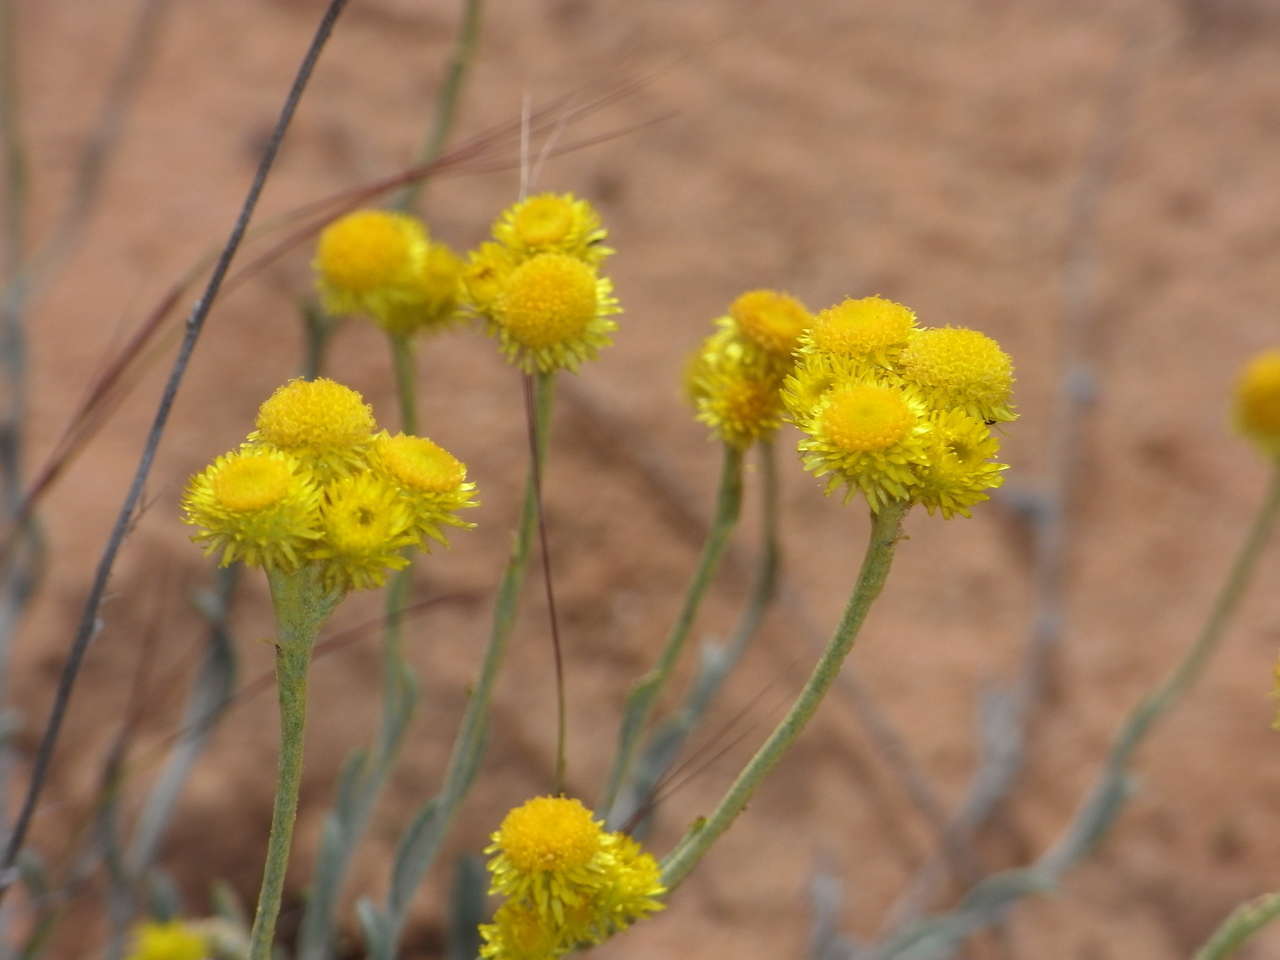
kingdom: Plantae
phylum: Tracheophyta
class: Magnoliopsida
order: Asterales
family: Asteraceae
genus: Chrysocephalum
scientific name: Chrysocephalum apiculatum
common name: Common everlasting
